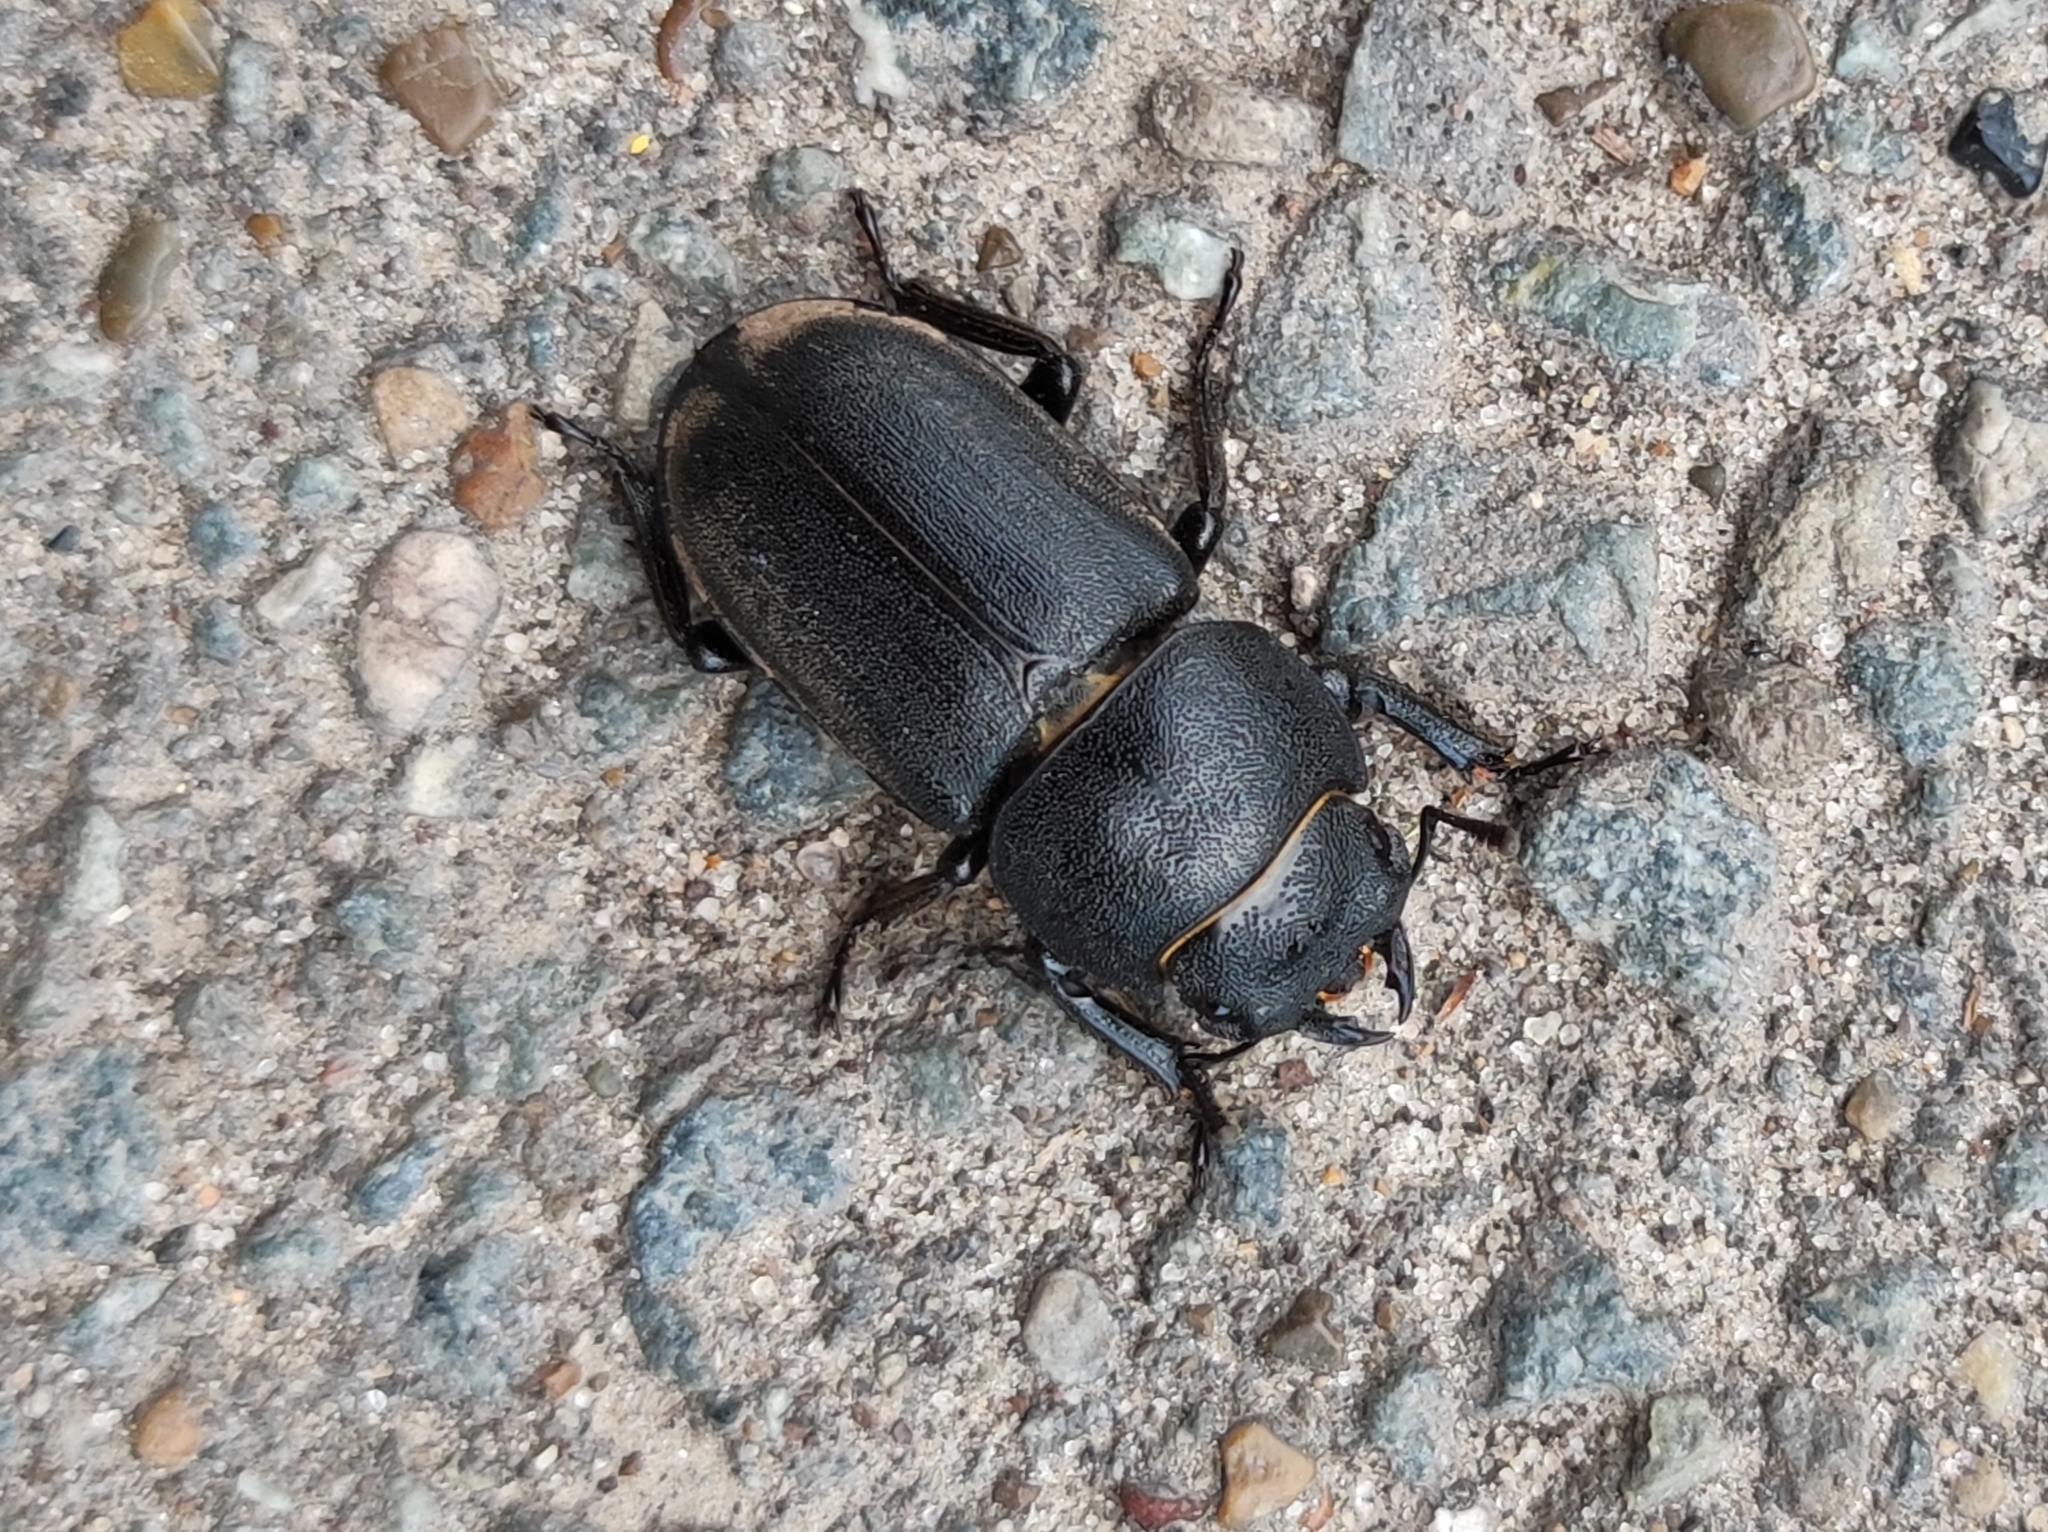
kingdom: Animalia
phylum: Arthropoda
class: Insecta
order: Coleoptera
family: Lucanidae
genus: Dorcus
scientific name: Dorcus parallelipipedus
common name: Lesser stag beetle
